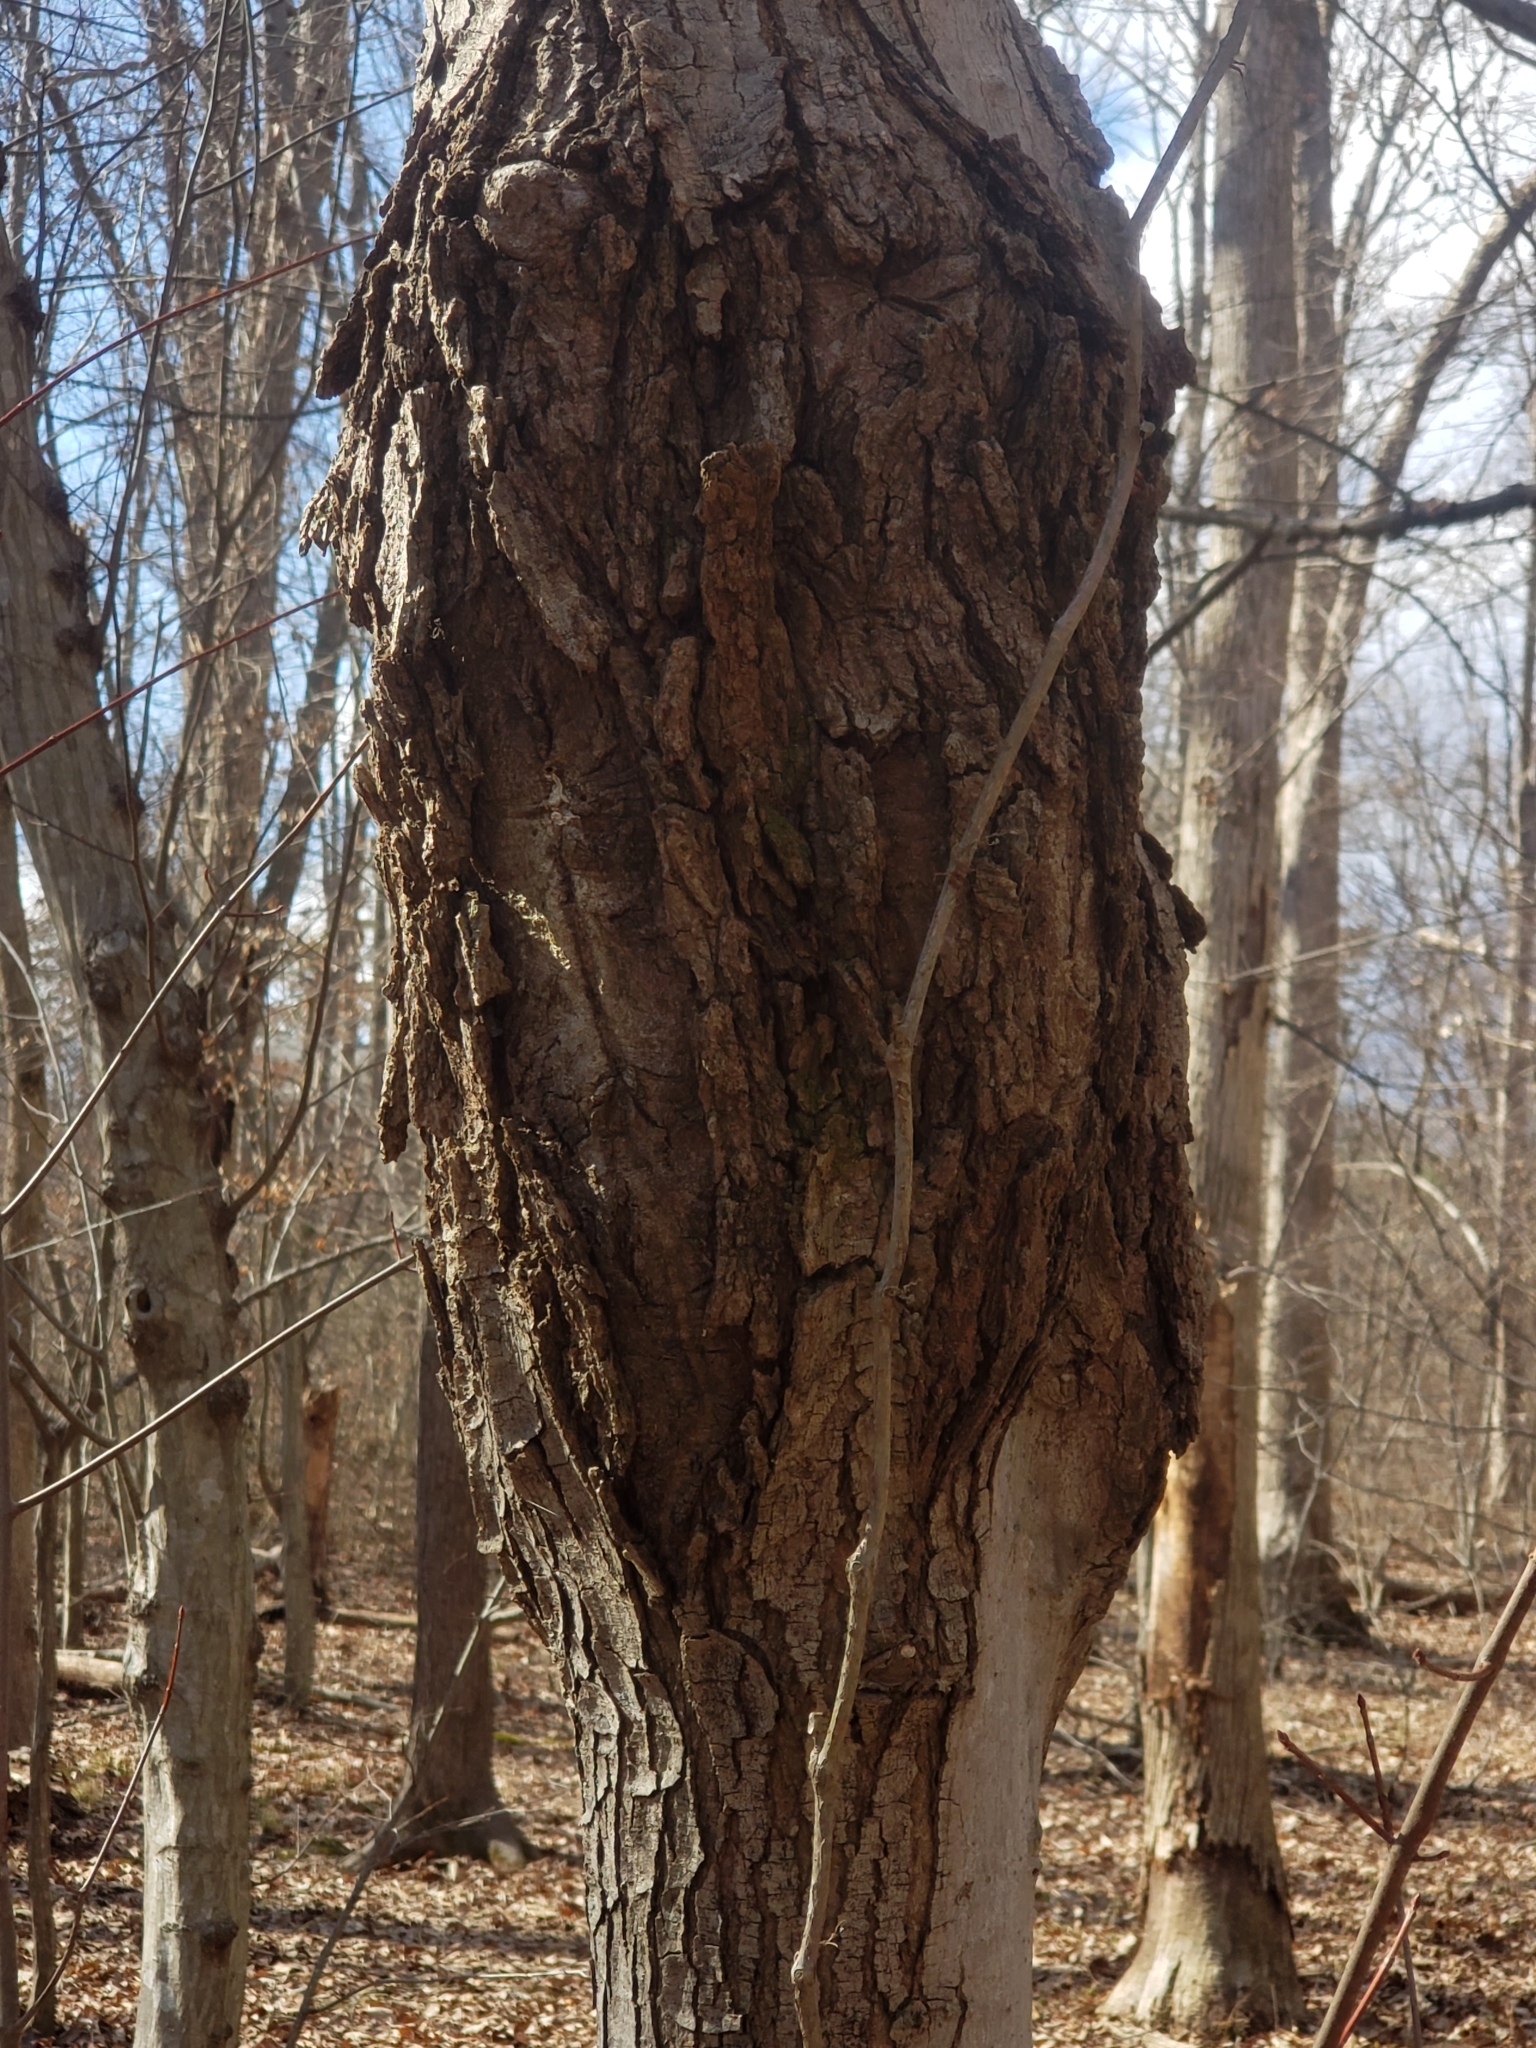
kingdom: Bacteria
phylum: Proteobacteria
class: Alphaproteobacteria
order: Rhizobiales
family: Rhizobiaceae
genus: Rhizobium
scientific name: Rhizobium Agrobacterium radiobacter
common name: Bacterial crown gall
